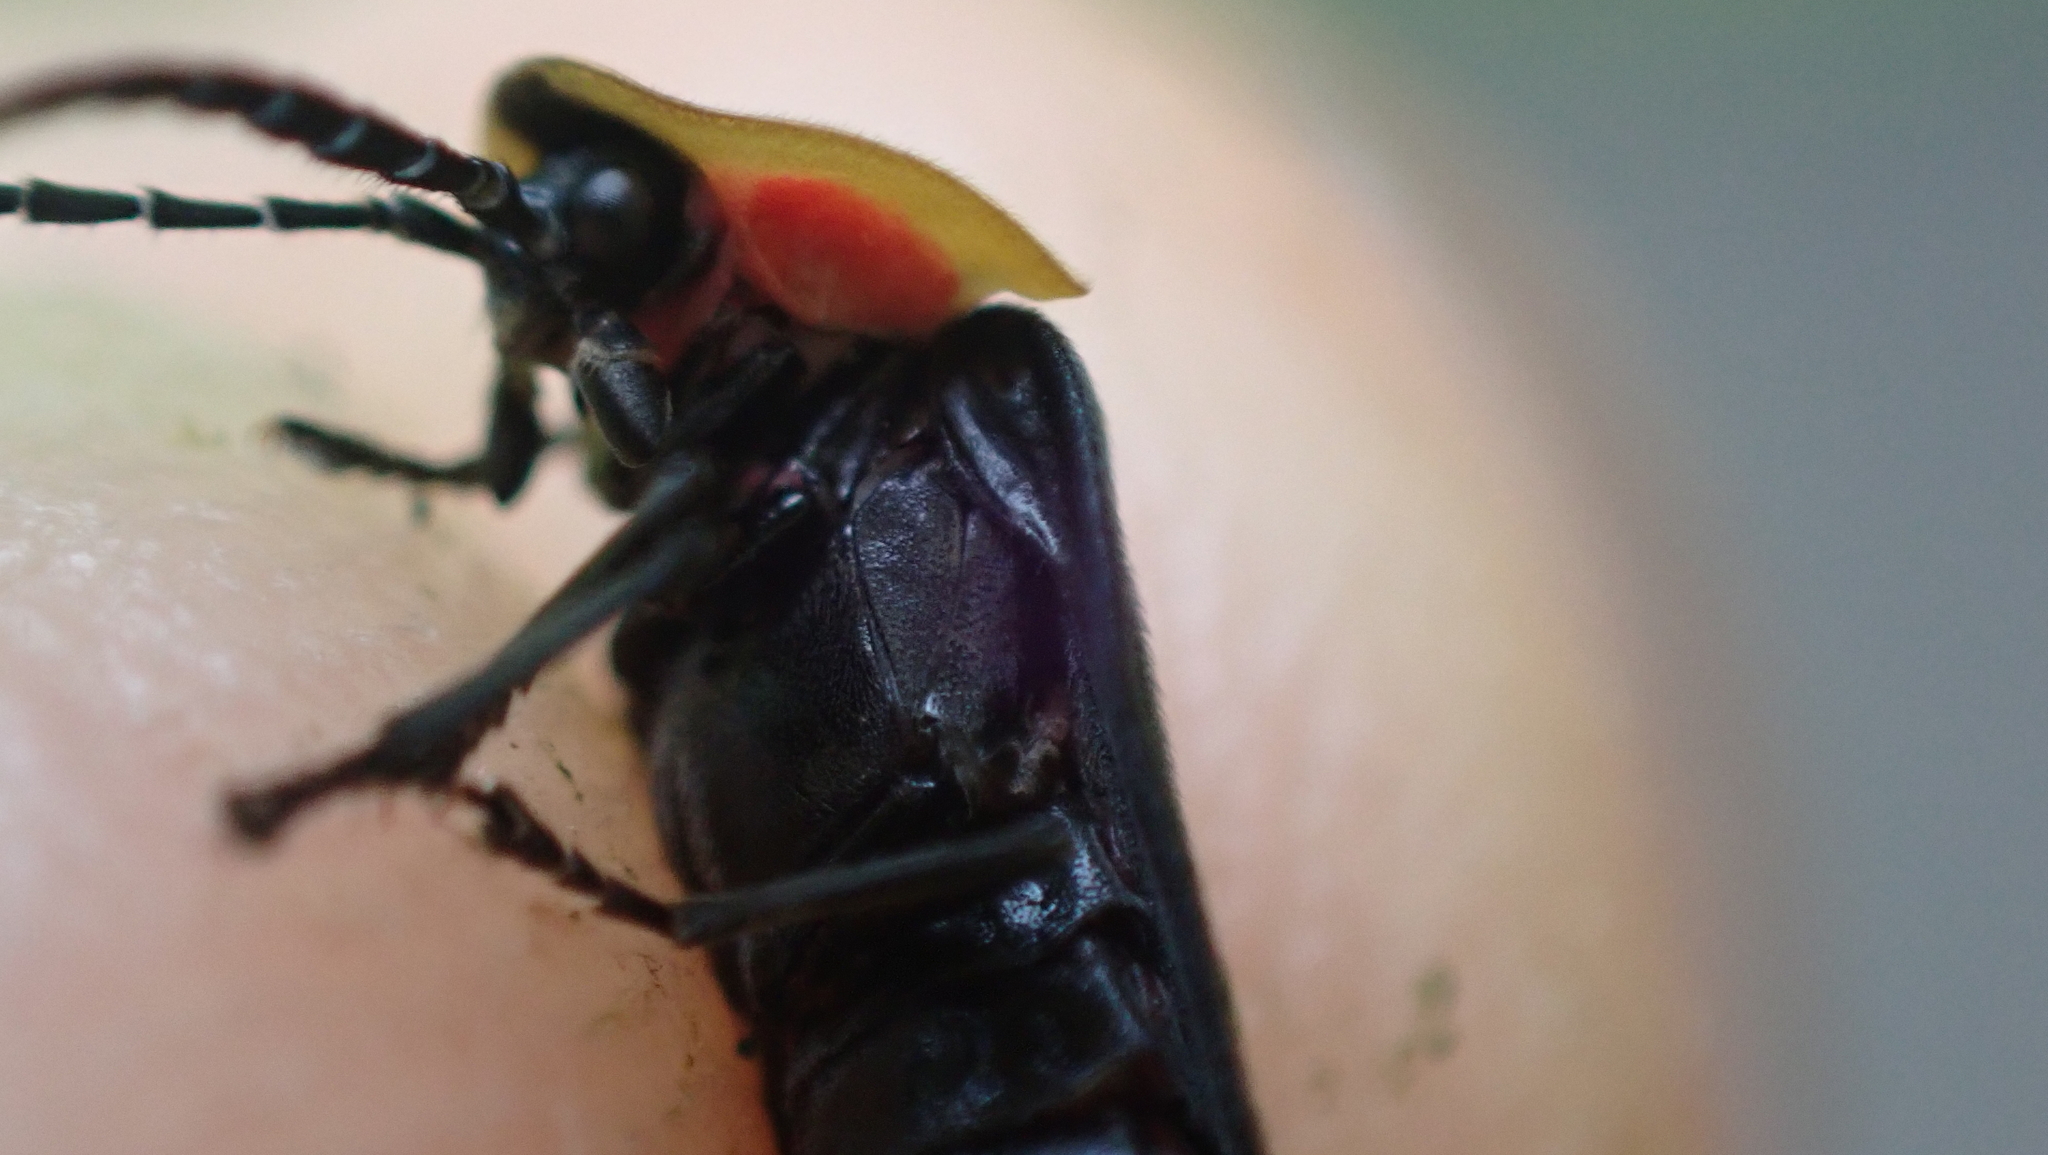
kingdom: Animalia
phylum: Arthropoda
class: Insecta
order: Coleoptera
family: Lampyridae
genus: Lucidota
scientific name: Lucidota atra
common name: Black firefly
